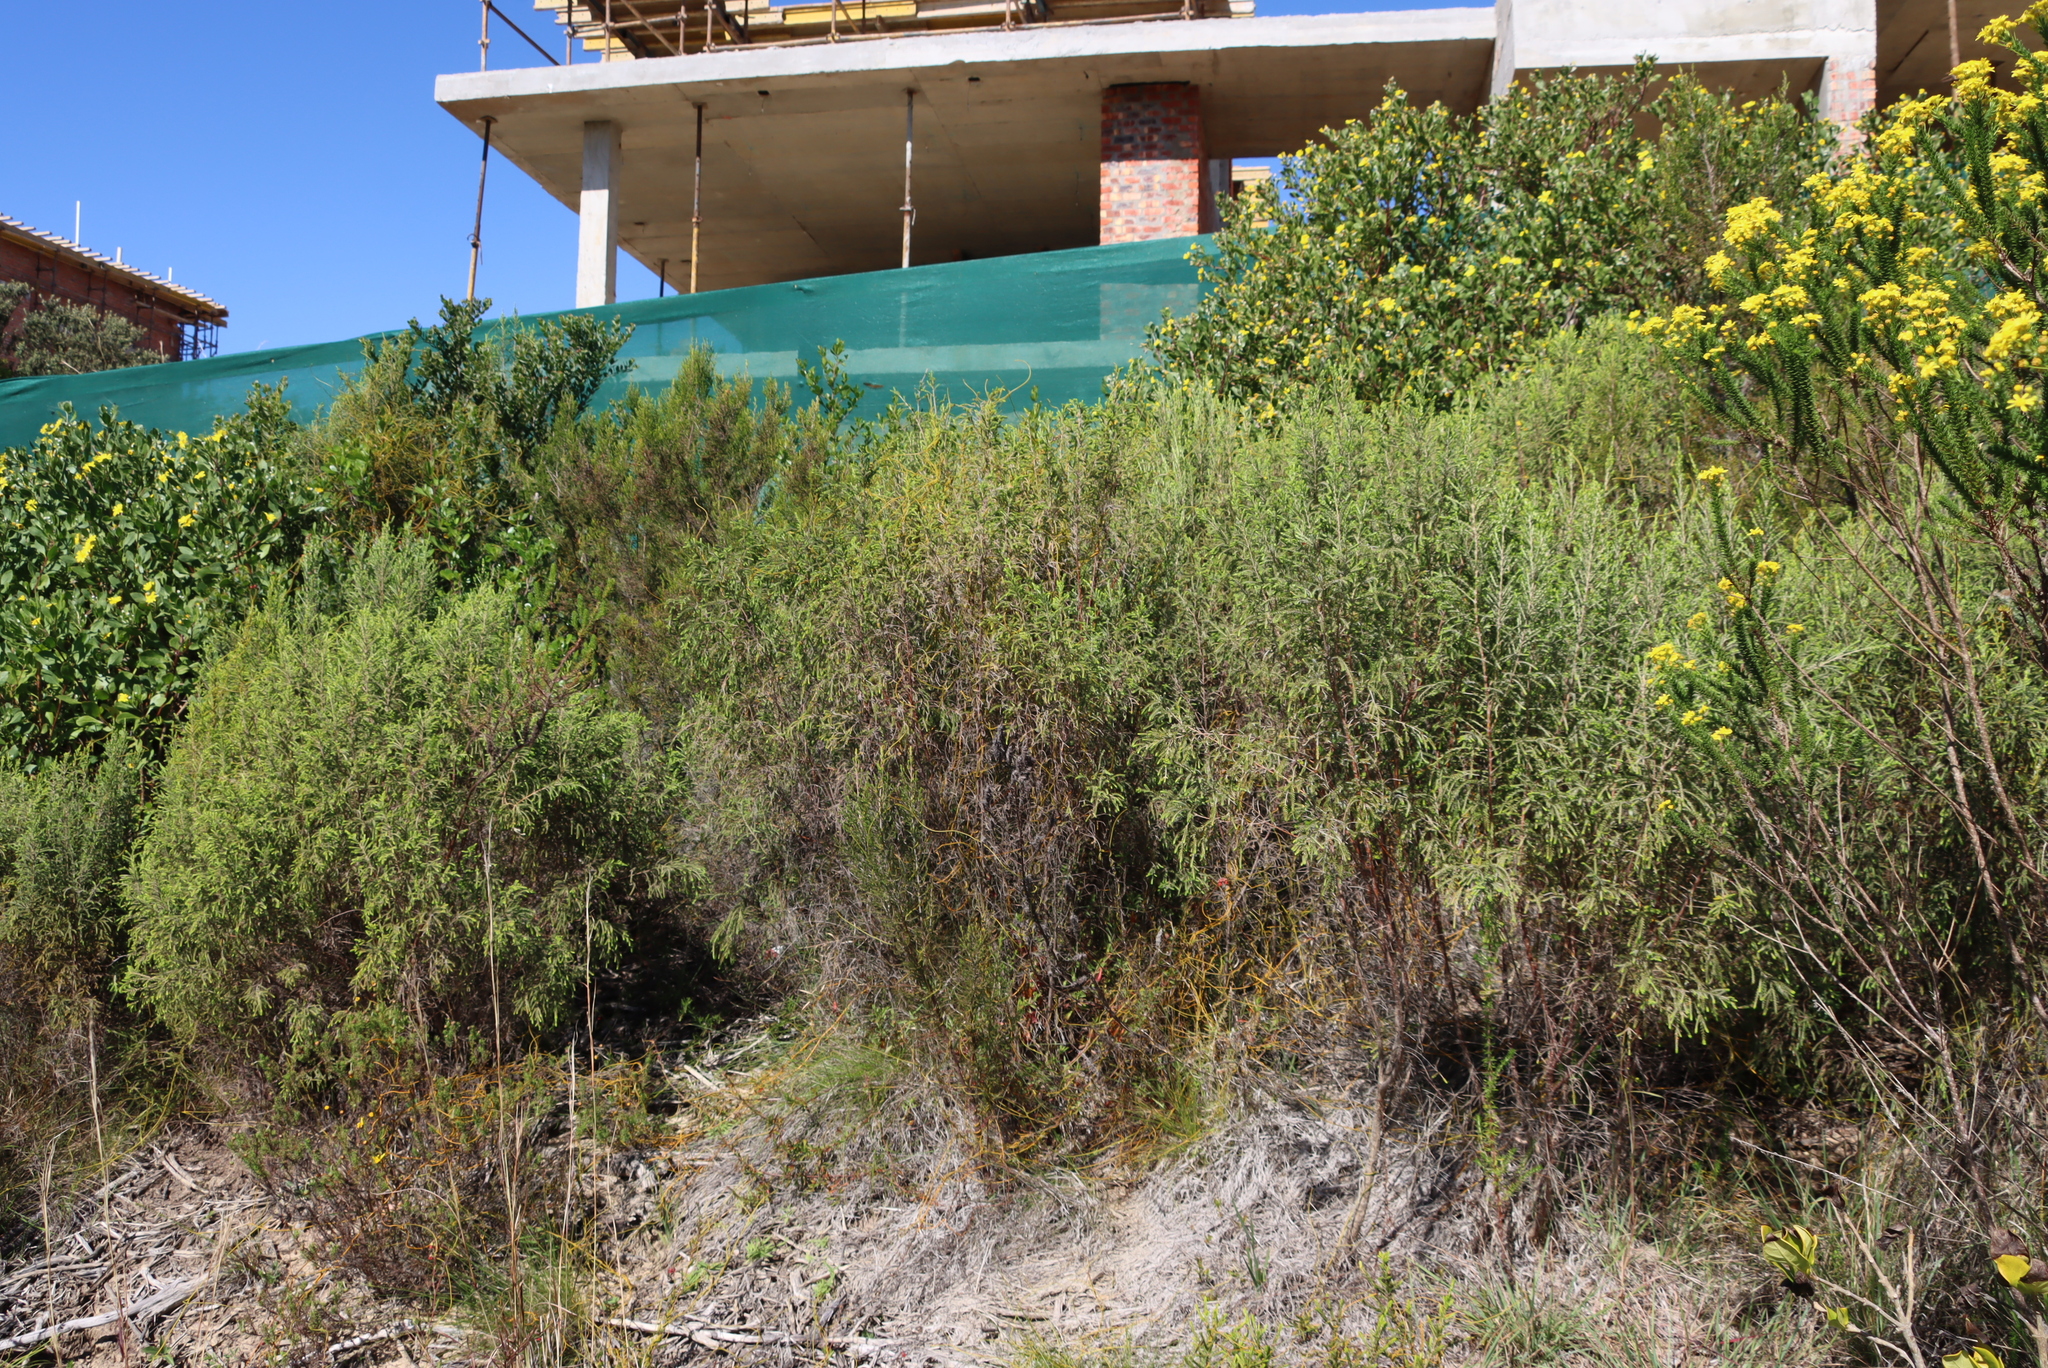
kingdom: Plantae
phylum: Tracheophyta
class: Magnoliopsida
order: Malvales
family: Thymelaeaceae
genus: Passerina
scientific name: Passerina falcifolia
